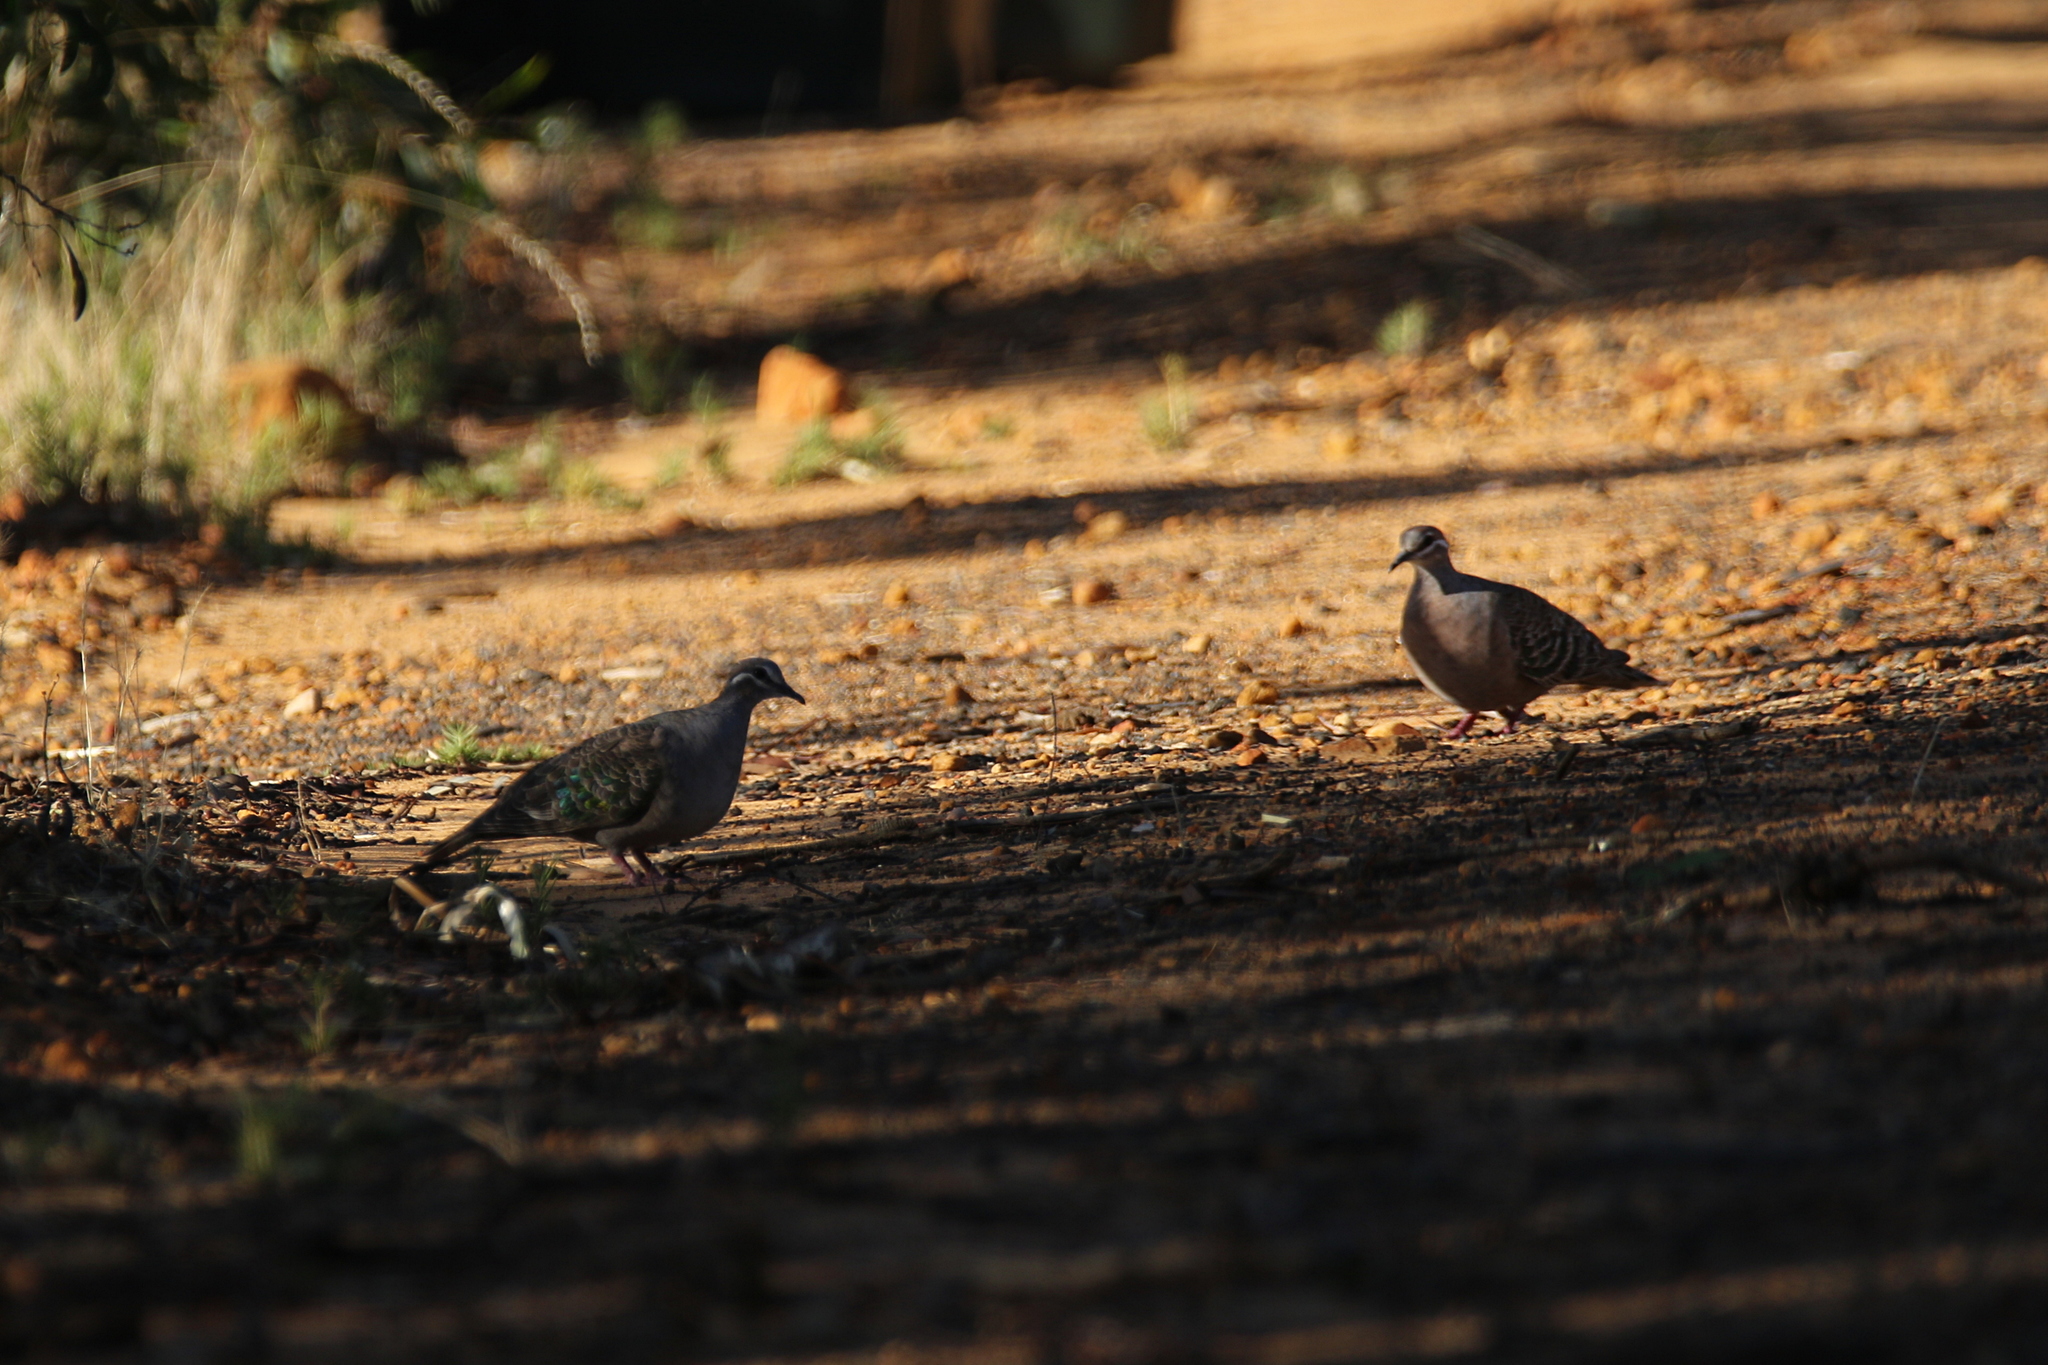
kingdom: Animalia
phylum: Chordata
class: Aves
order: Columbiformes
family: Columbidae
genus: Phaps
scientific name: Phaps chalcoptera
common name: Common bronzewing
